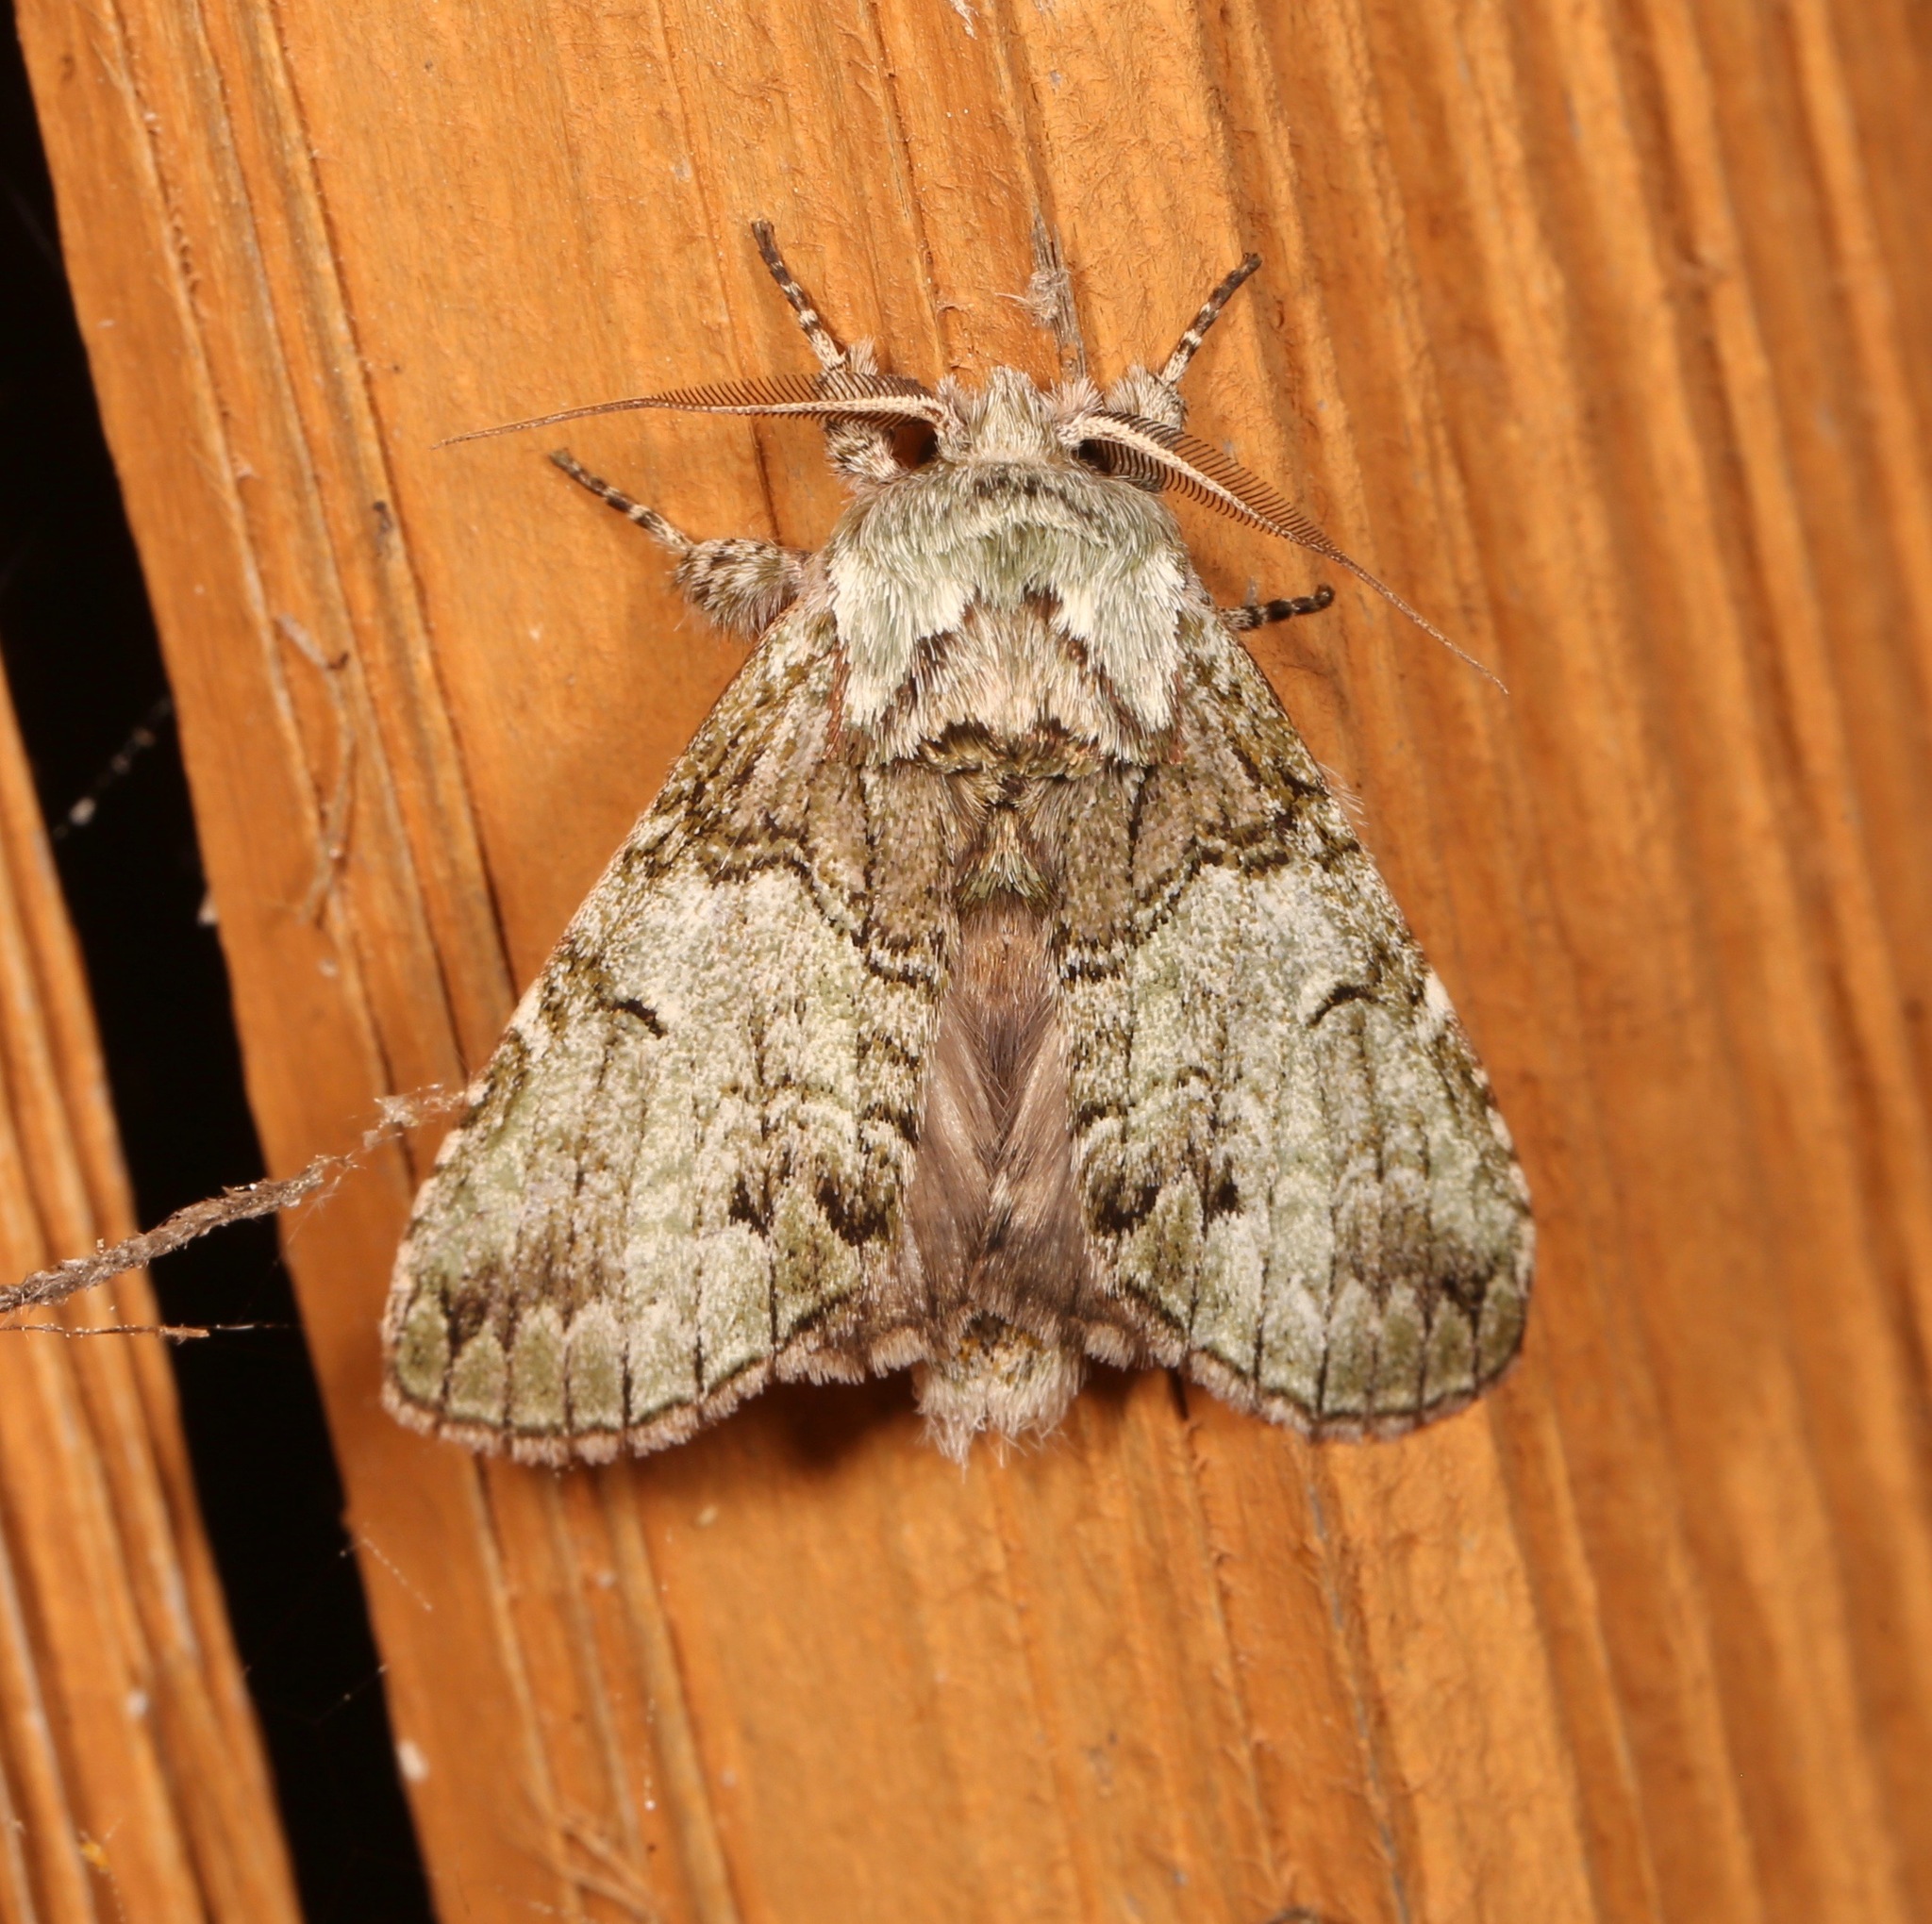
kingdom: Animalia
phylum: Arthropoda
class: Insecta
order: Lepidoptera
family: Notodontidae
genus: Macrurocampa
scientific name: Macrurocampa marthesia
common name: Mottled prominent
